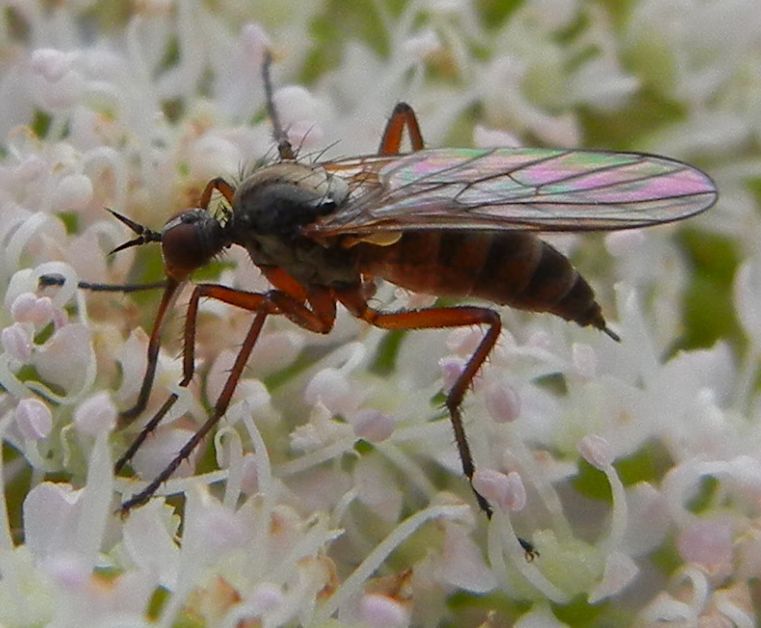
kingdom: Animalia
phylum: Arthropoda
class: Insecta
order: Diptera
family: Empididae
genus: Rhamphomyia
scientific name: Rhamphomyia variabilis
